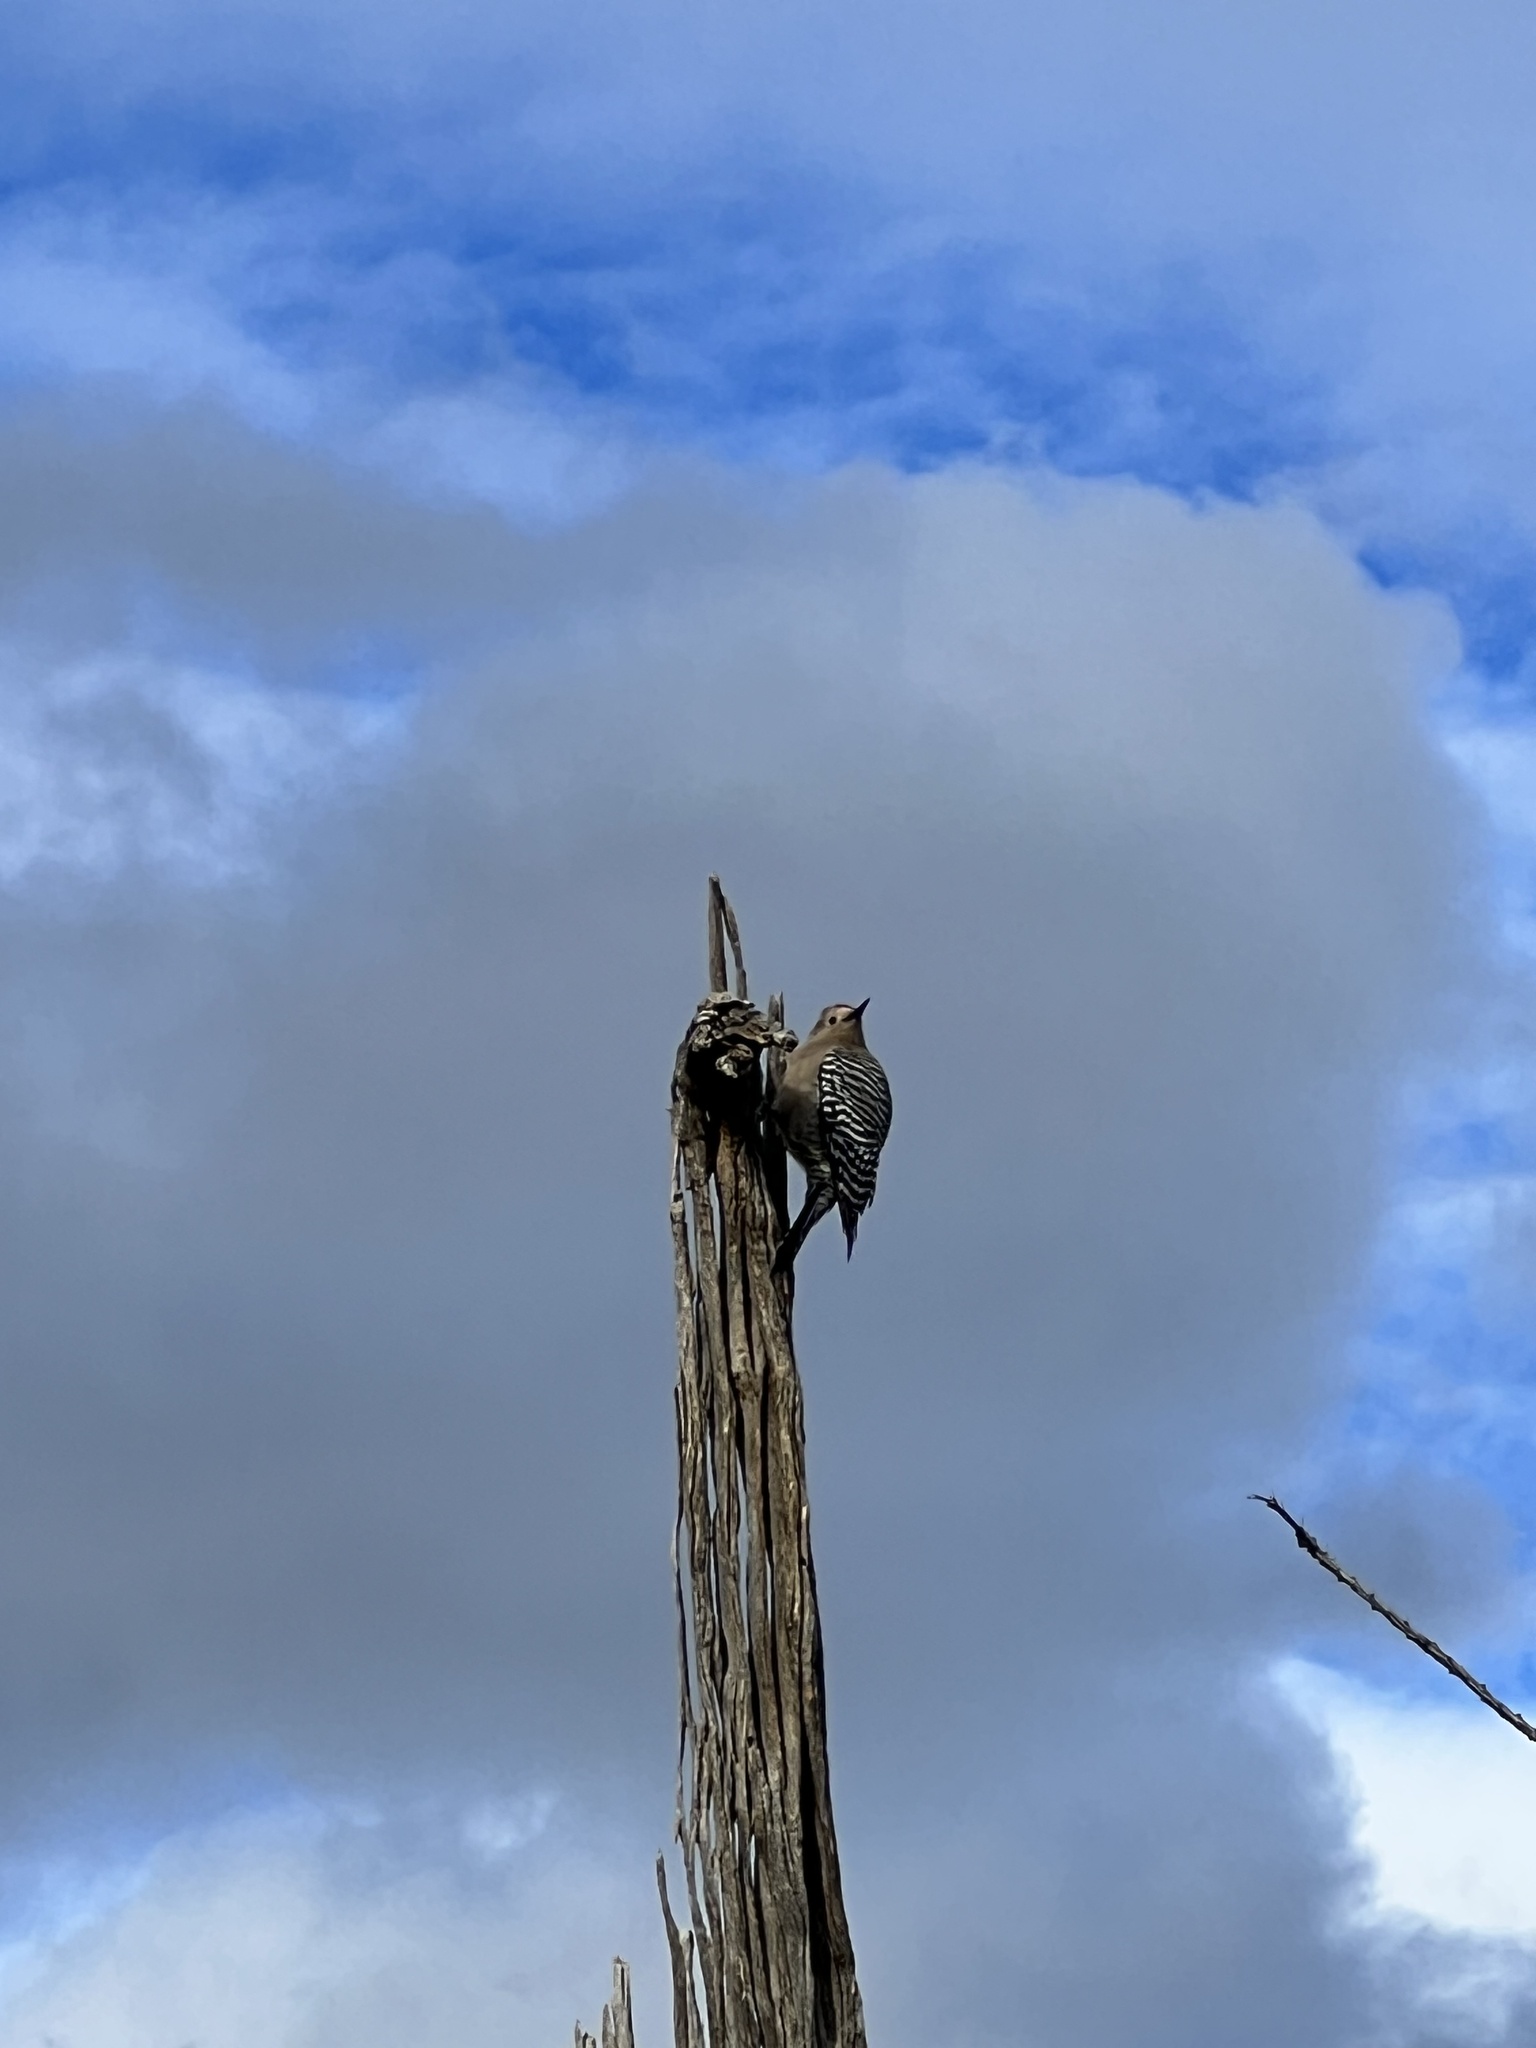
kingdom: Animalia
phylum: Chordata
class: Aves
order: Piciformes
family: Picidae
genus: Melanerpes
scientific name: Melanerpes uropygialis
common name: Gila woodpecker
